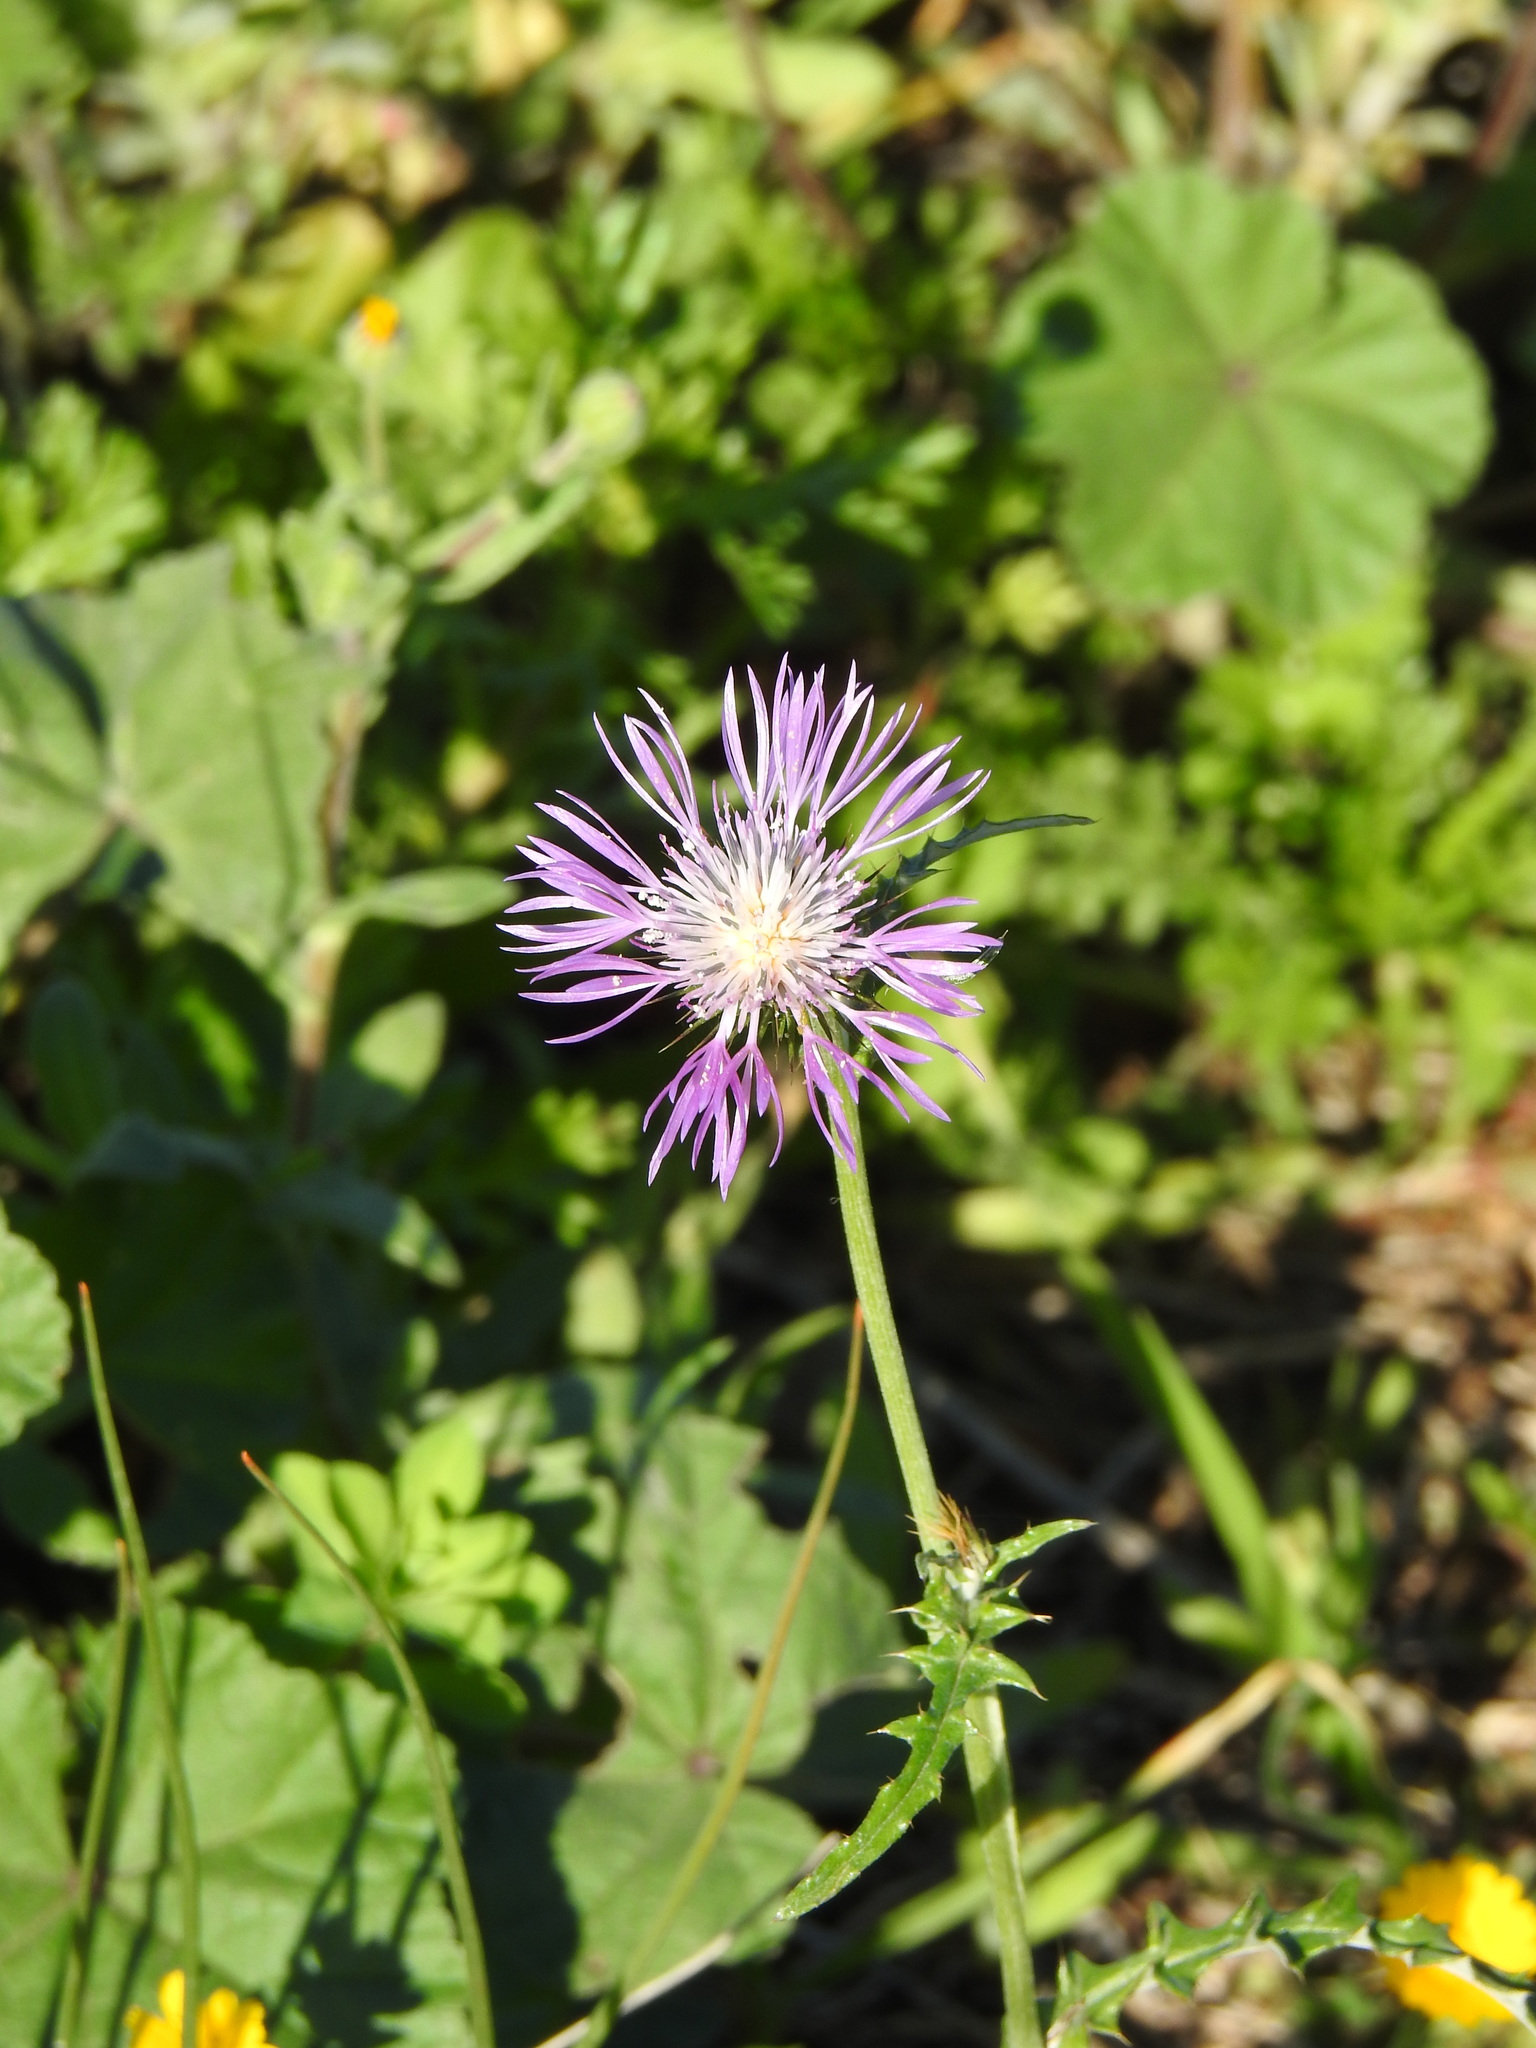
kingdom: Plantae
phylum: Tracheophyta
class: Magnoliopsida
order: Asterales
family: Asteraceae
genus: Galactites
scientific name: Galactites tomentosa
